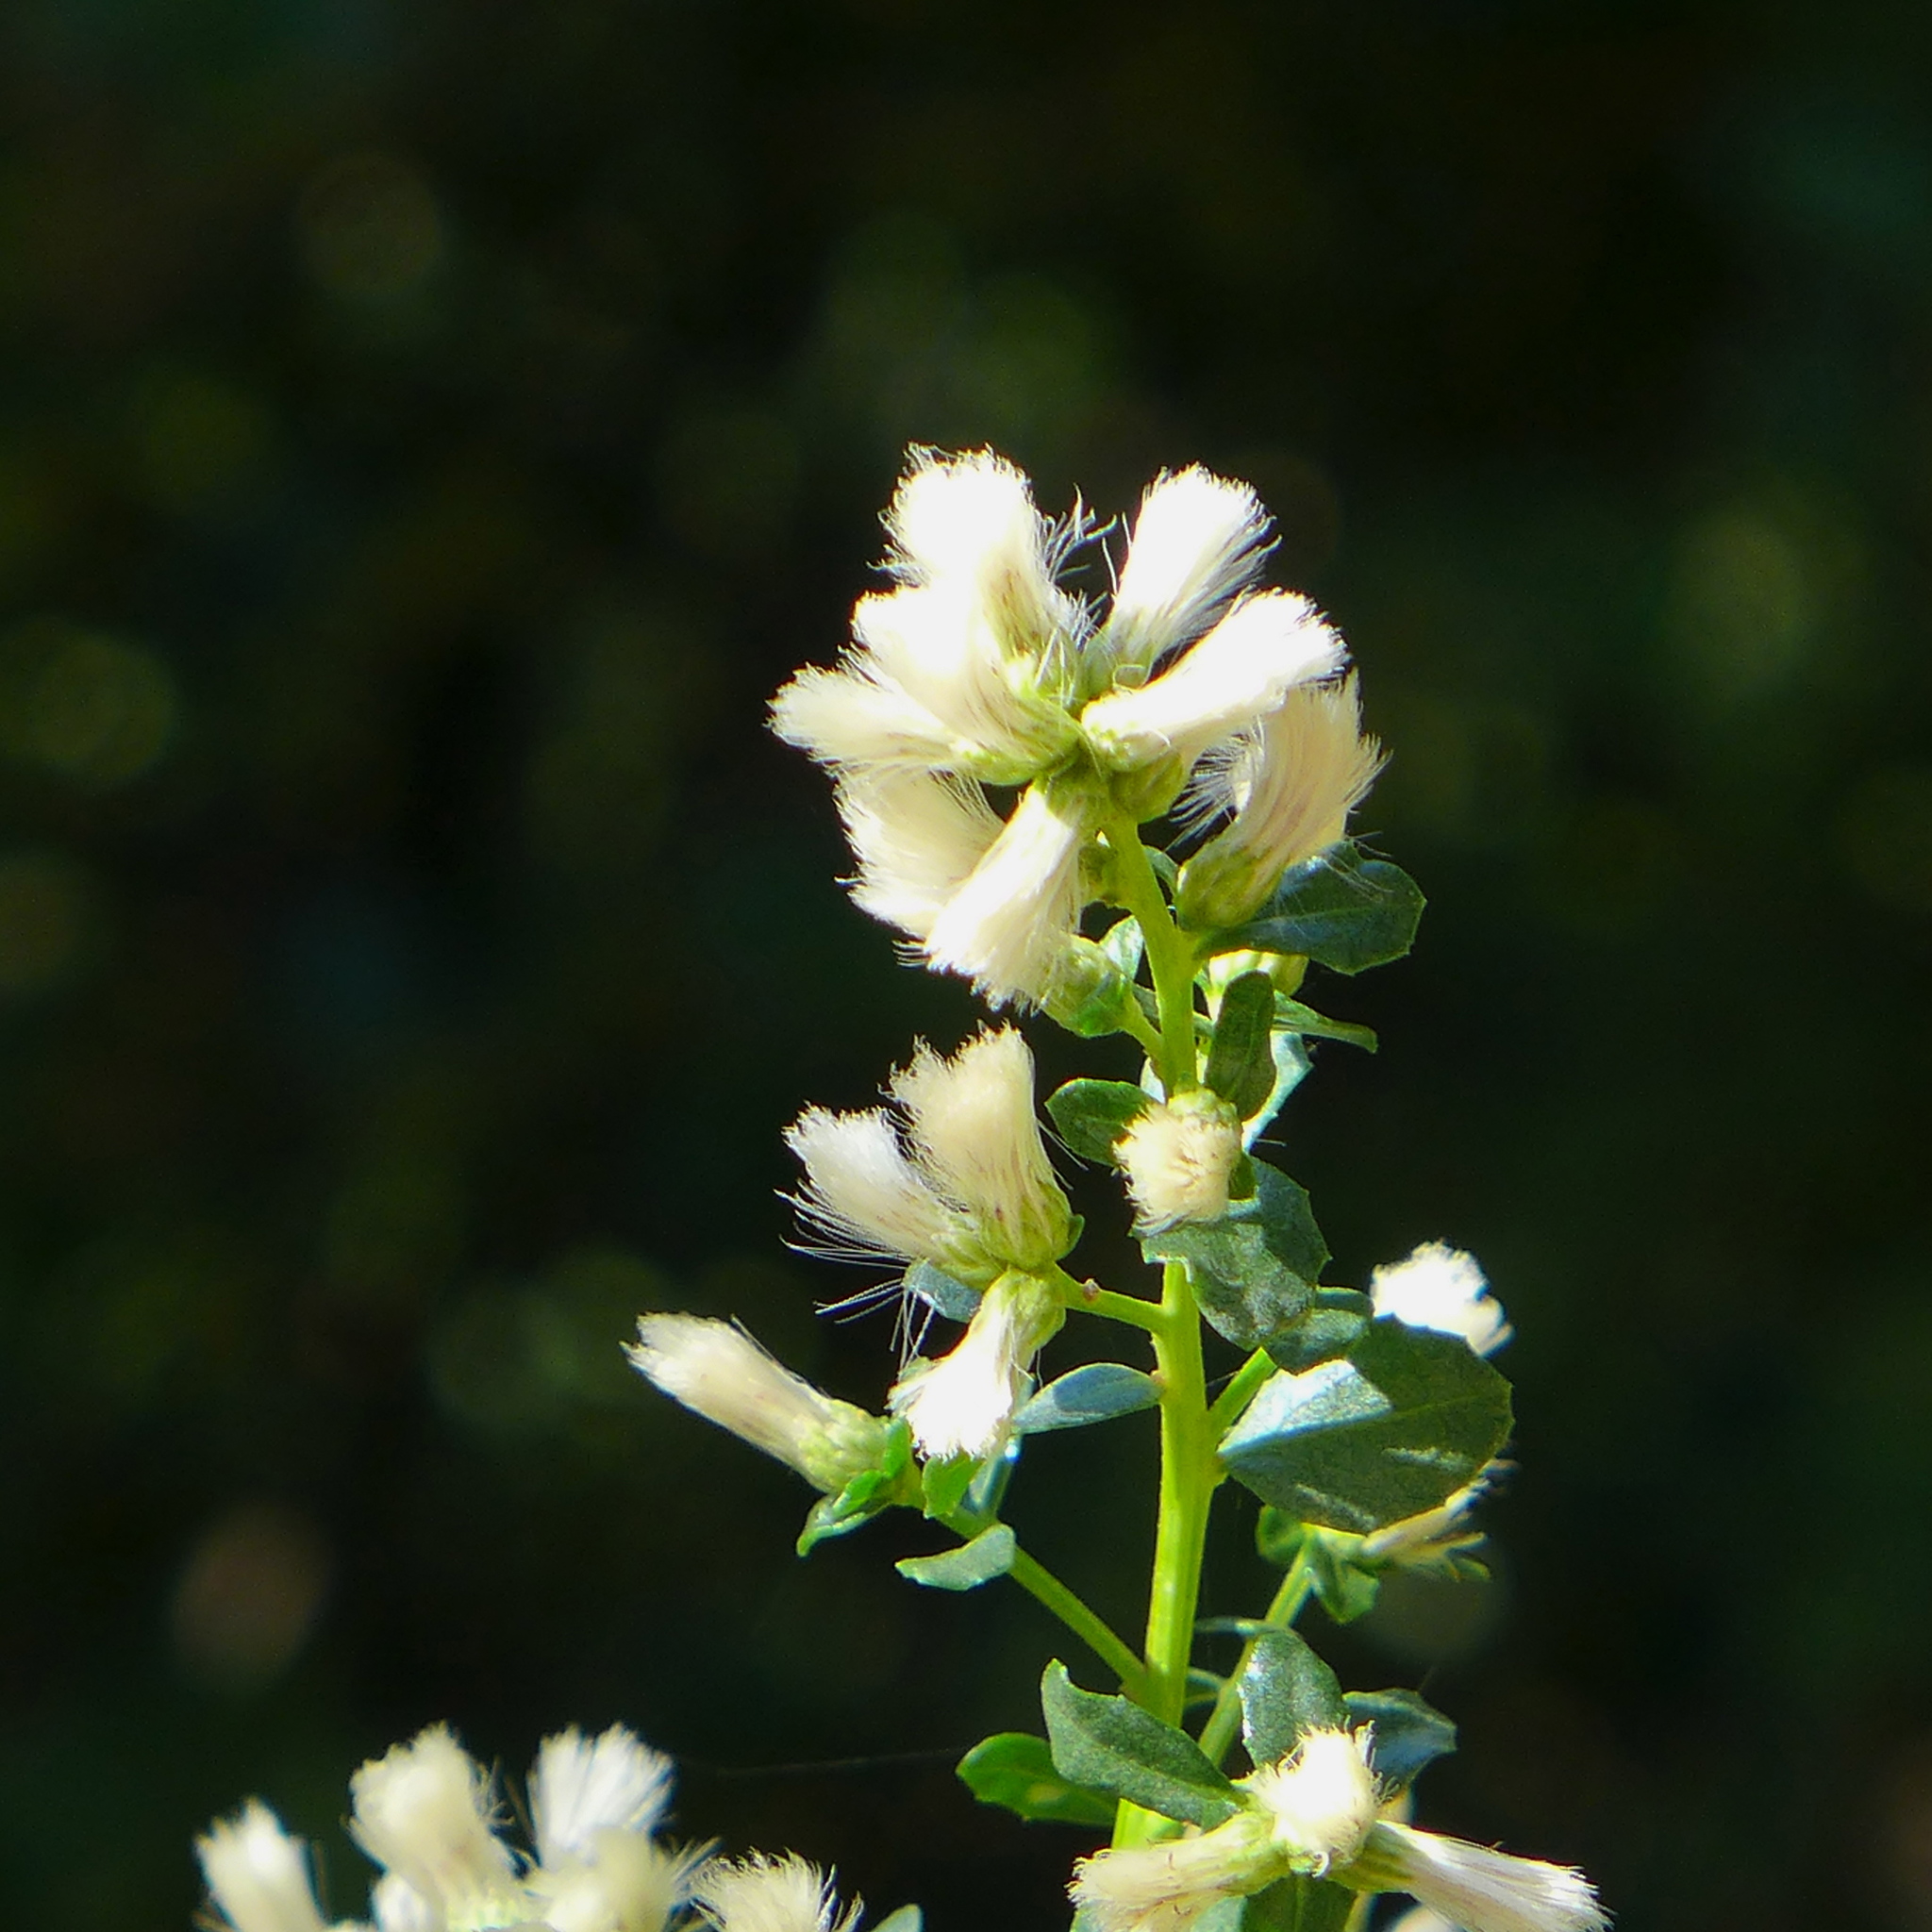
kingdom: Plantae
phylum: Tracheophyta
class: Magnoliopsida
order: Asterales
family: Asteraceae
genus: Baccharis
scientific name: Baccharis pilularis
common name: Coyotebrush
